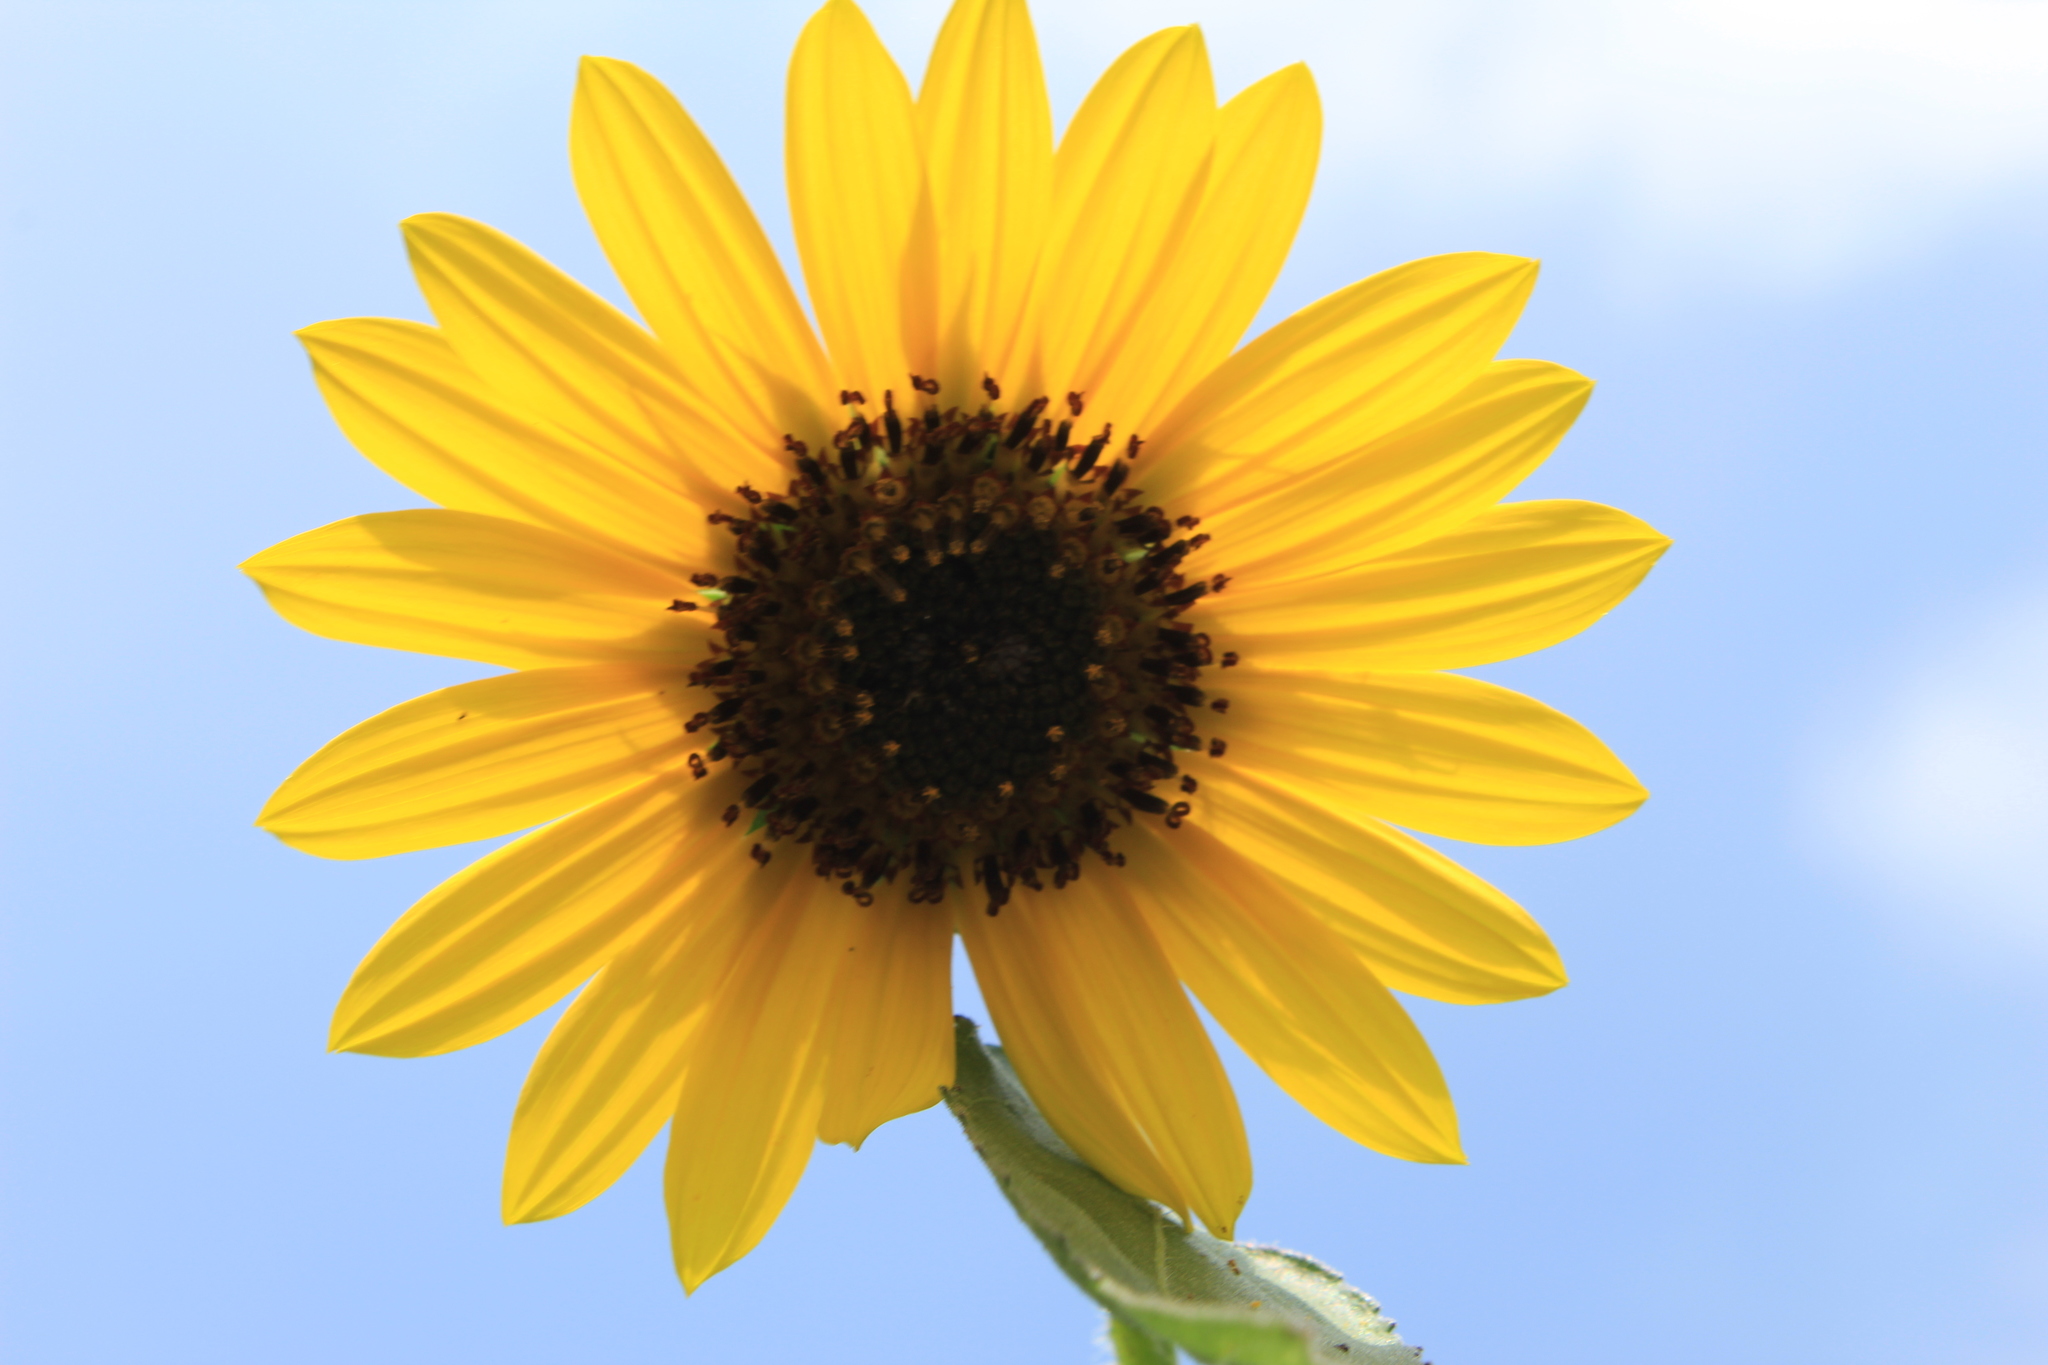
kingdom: Plantae
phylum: Tracheophyta
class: Magnoliopsida
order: Asterales
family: Asteraceae
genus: Helianthus
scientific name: Helianthus annuus
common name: Sunflower
